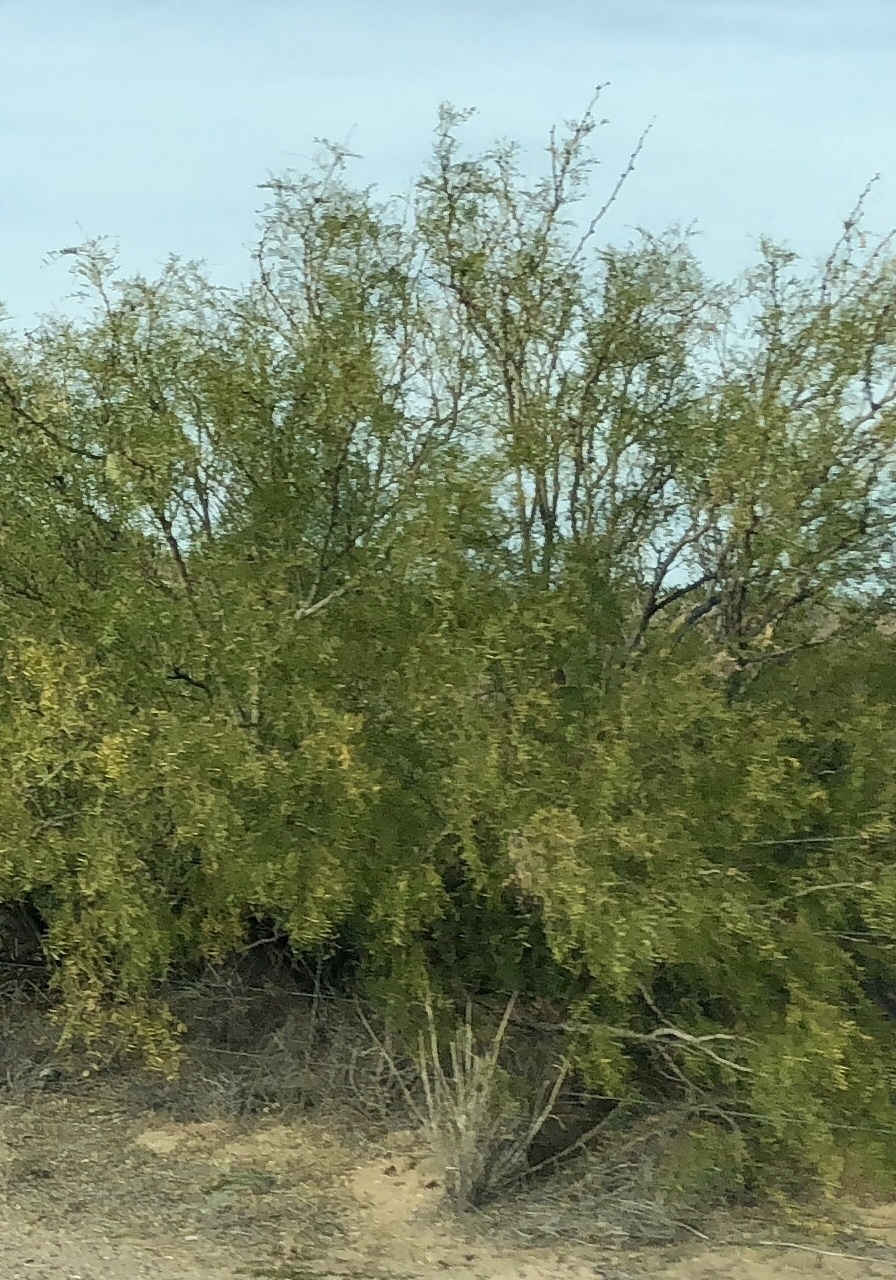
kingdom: Plantae
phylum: Tracheophyta
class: Magnoliopsida
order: Fabales
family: Fabaceae
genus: Prosopis
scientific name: Prosopis glandulosa
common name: Honey mesquite
